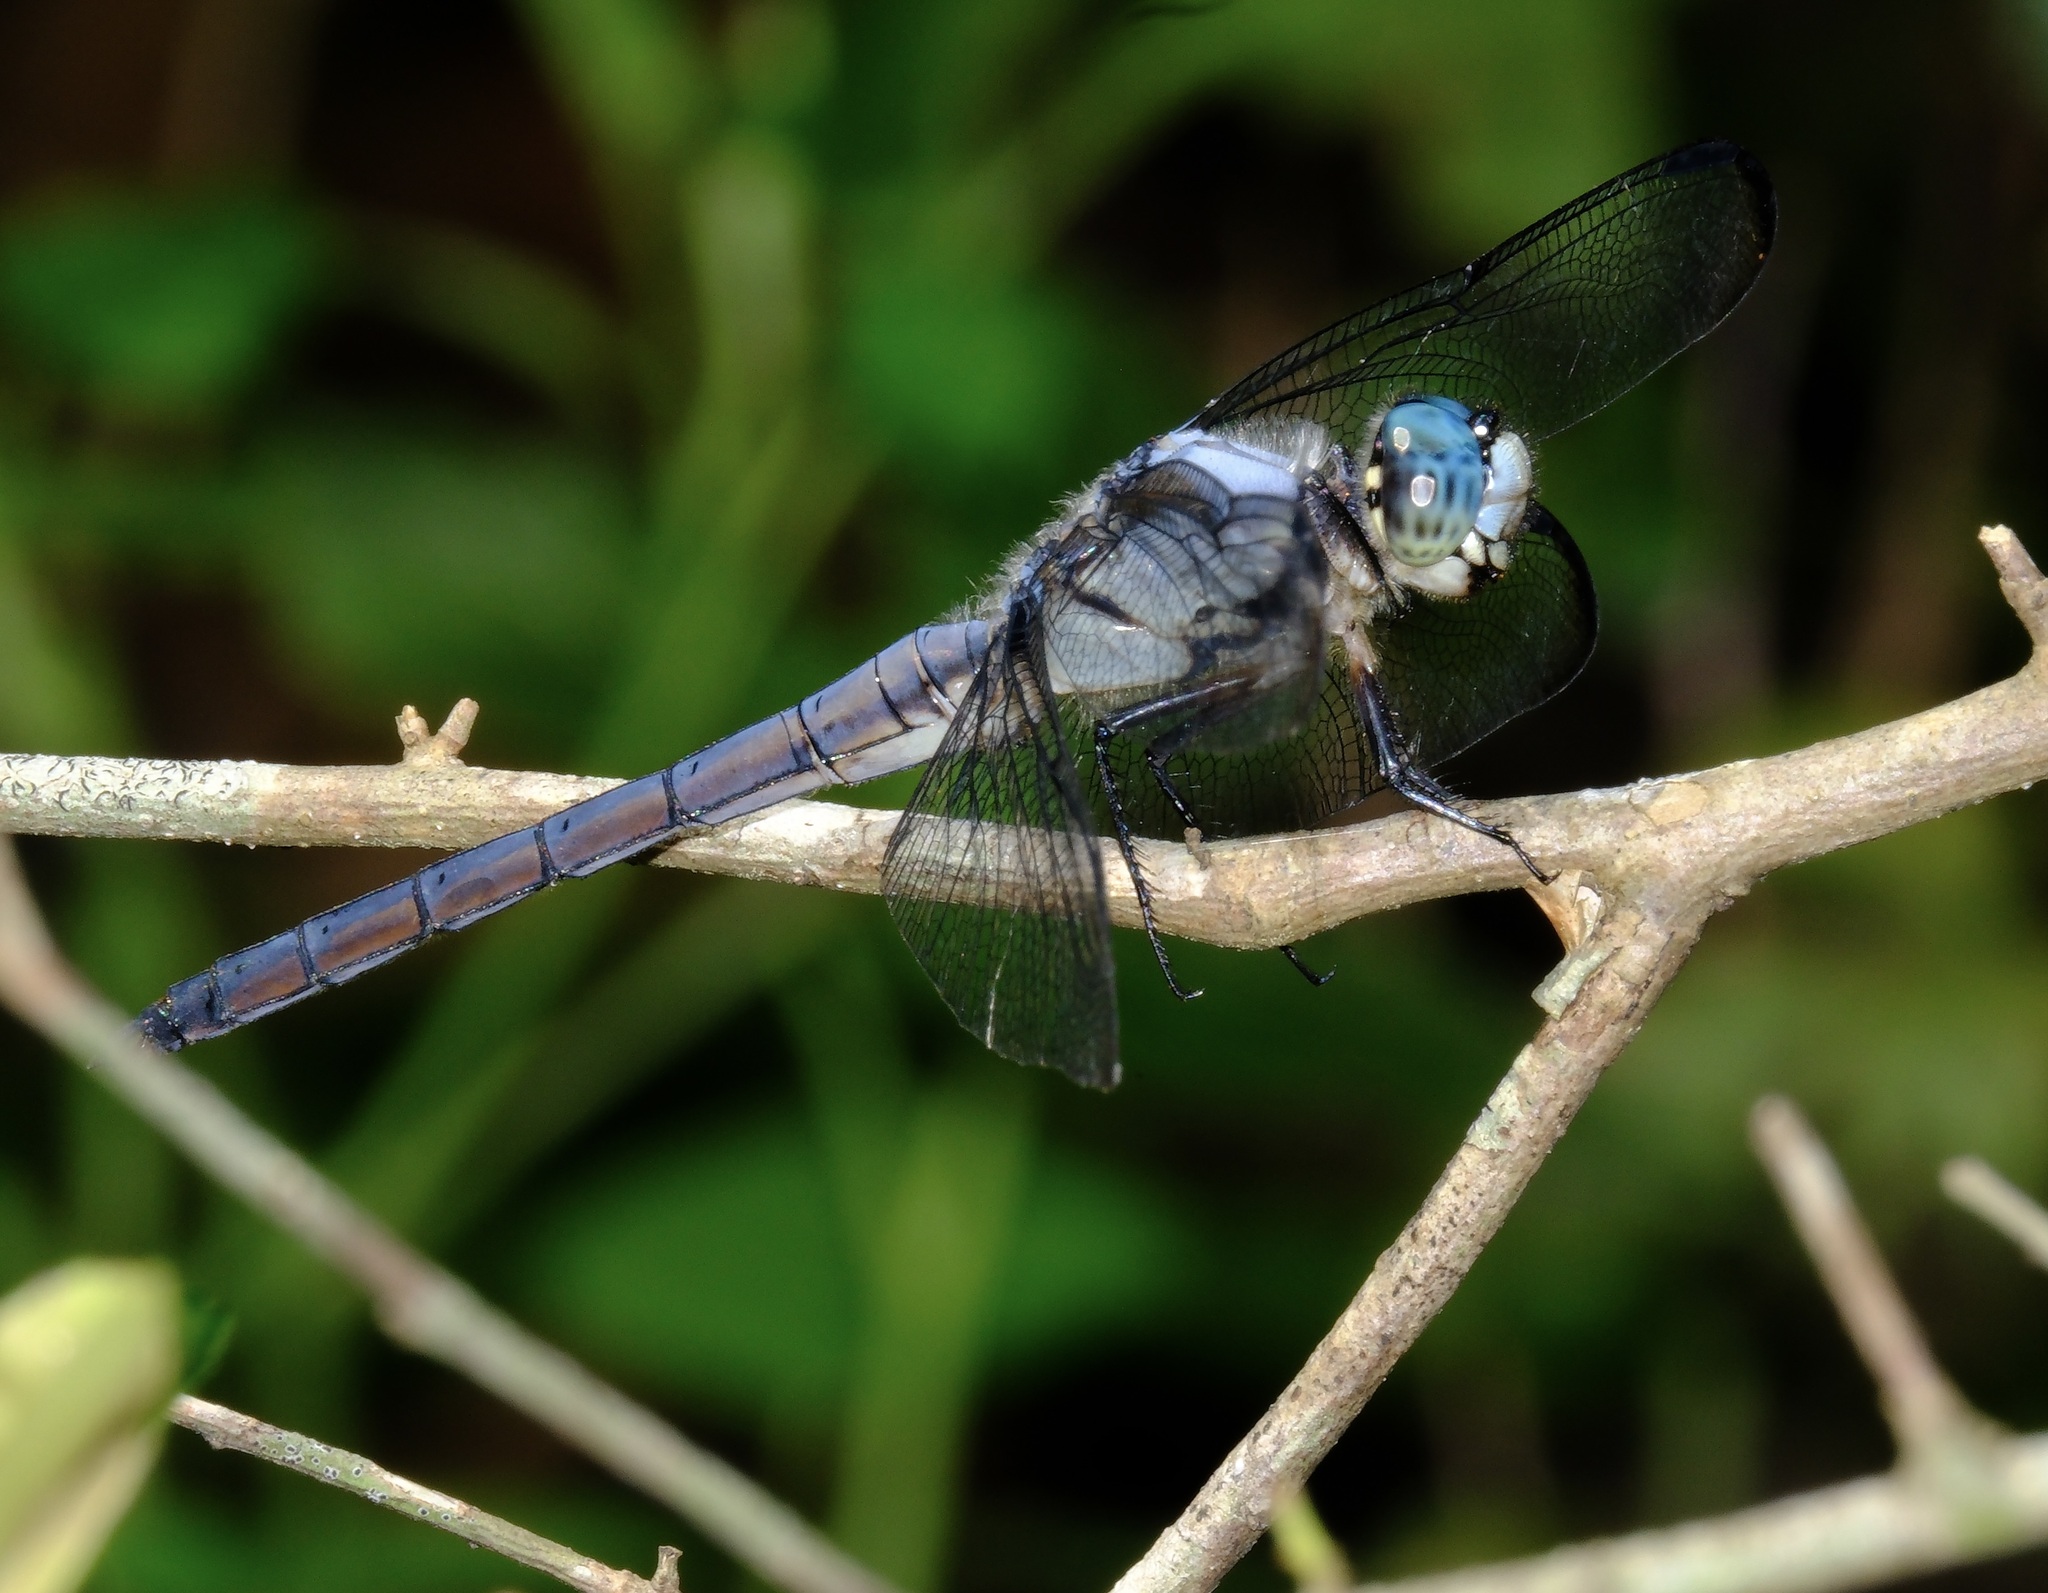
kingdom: Animalia
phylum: Arthropoda
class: Insecta
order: Odonata
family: Libellulidae
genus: Libellula
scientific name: Libellula vibrans
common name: Great blue skimmer
